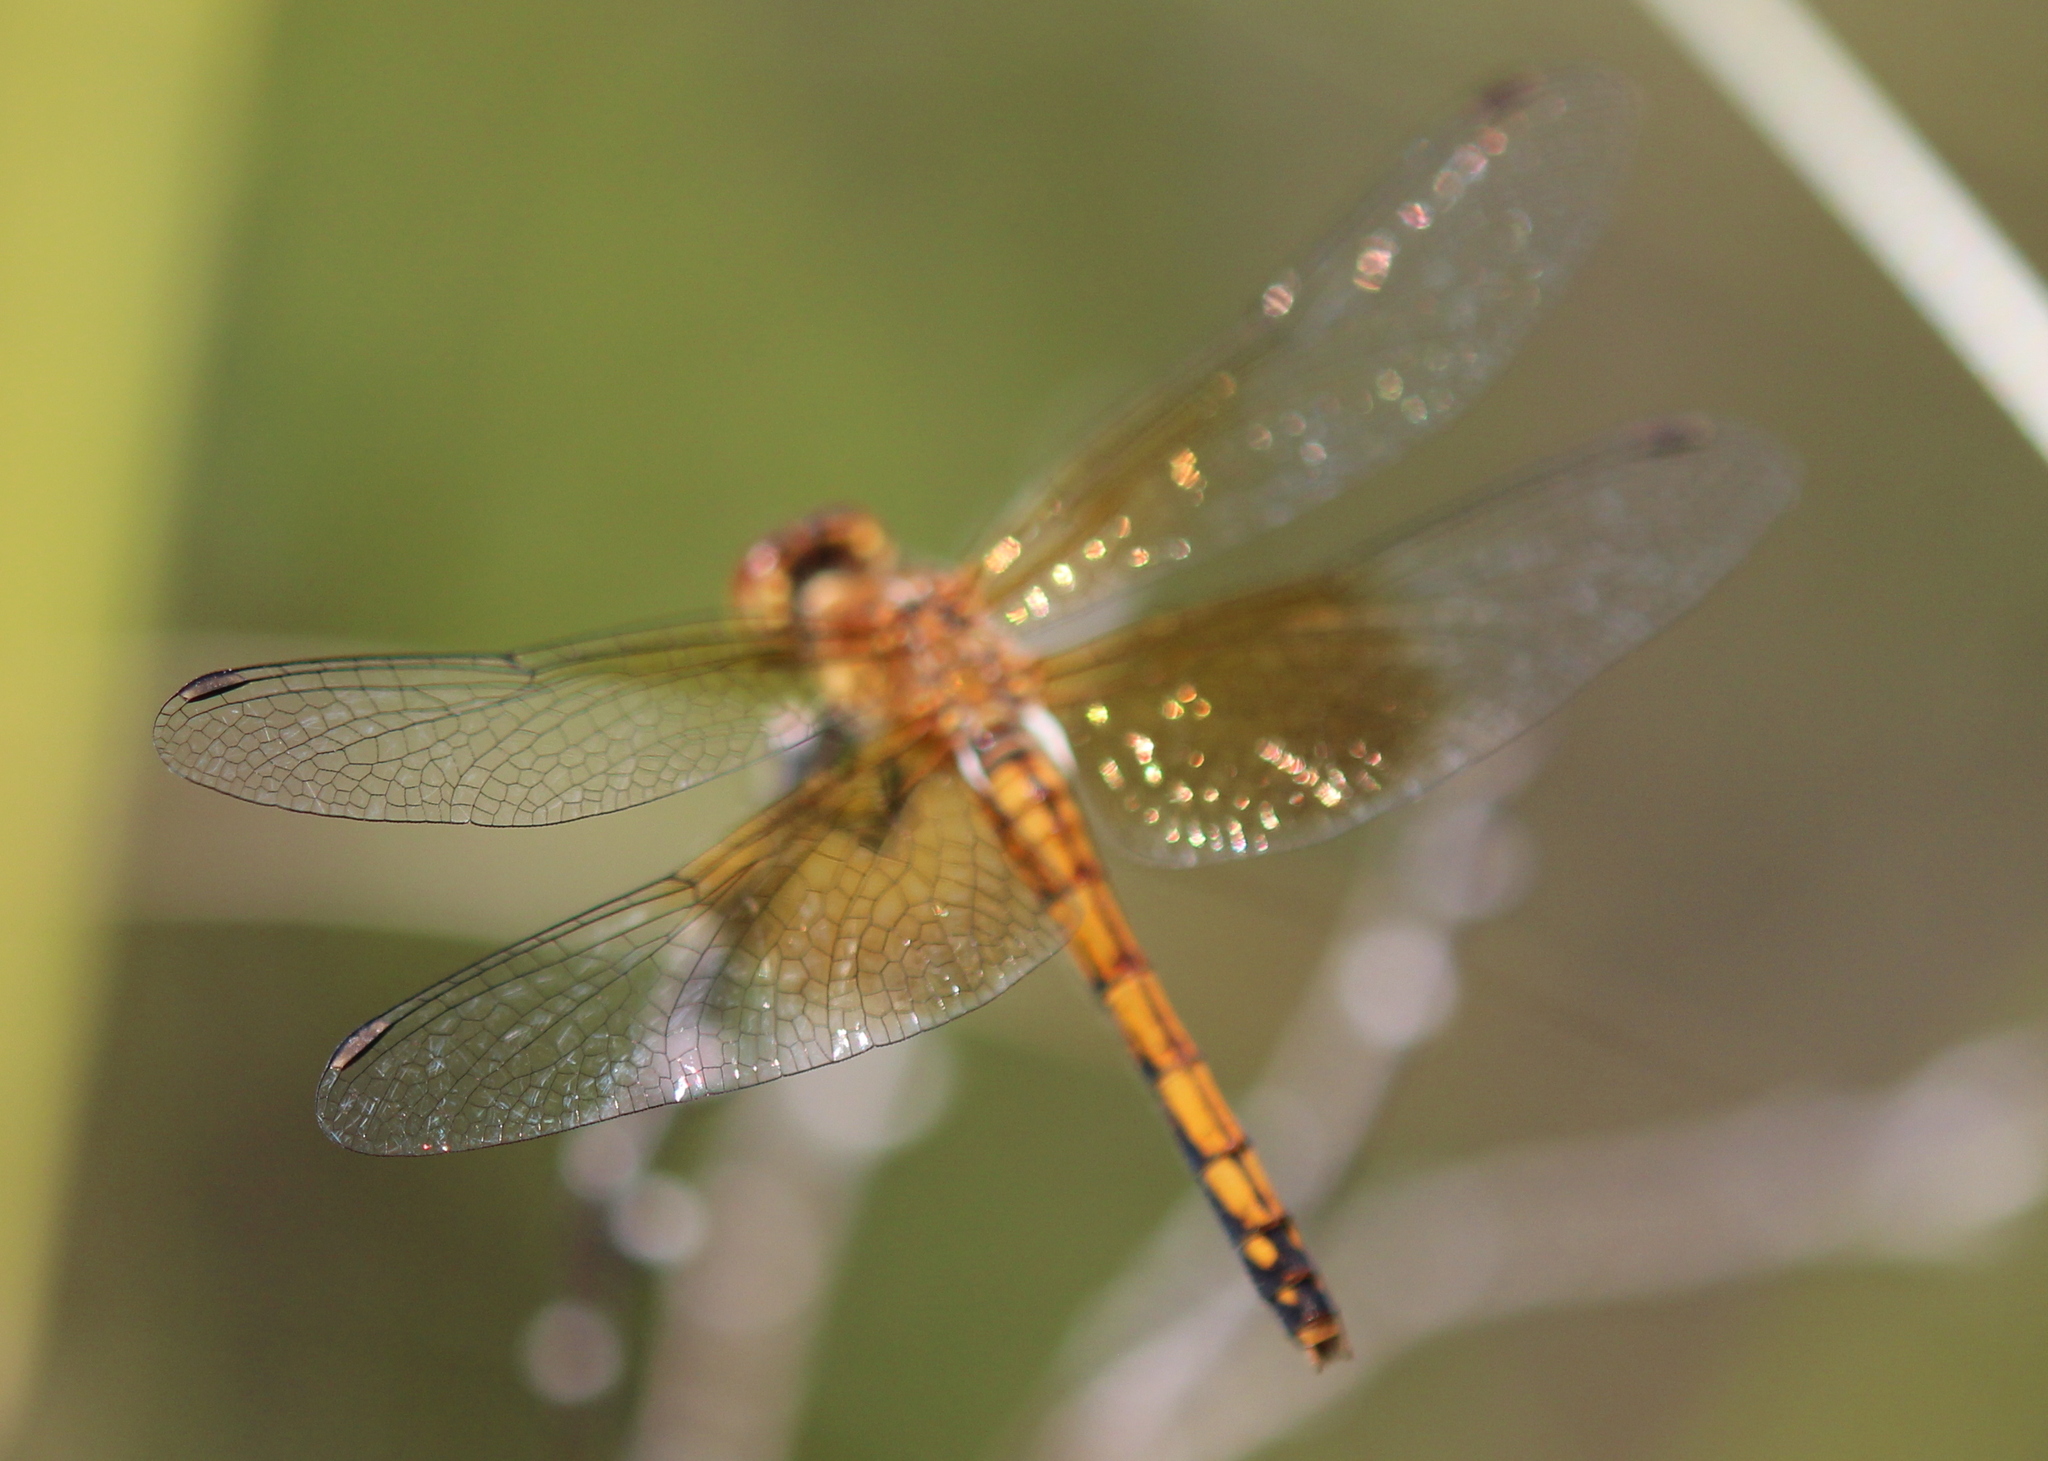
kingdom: Animalia
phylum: Arthropoda
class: Insecta
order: Odonata
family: Libellulidae
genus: Sympetrum
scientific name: Sympetrum semicinctum
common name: Band-winged meadowhawk
